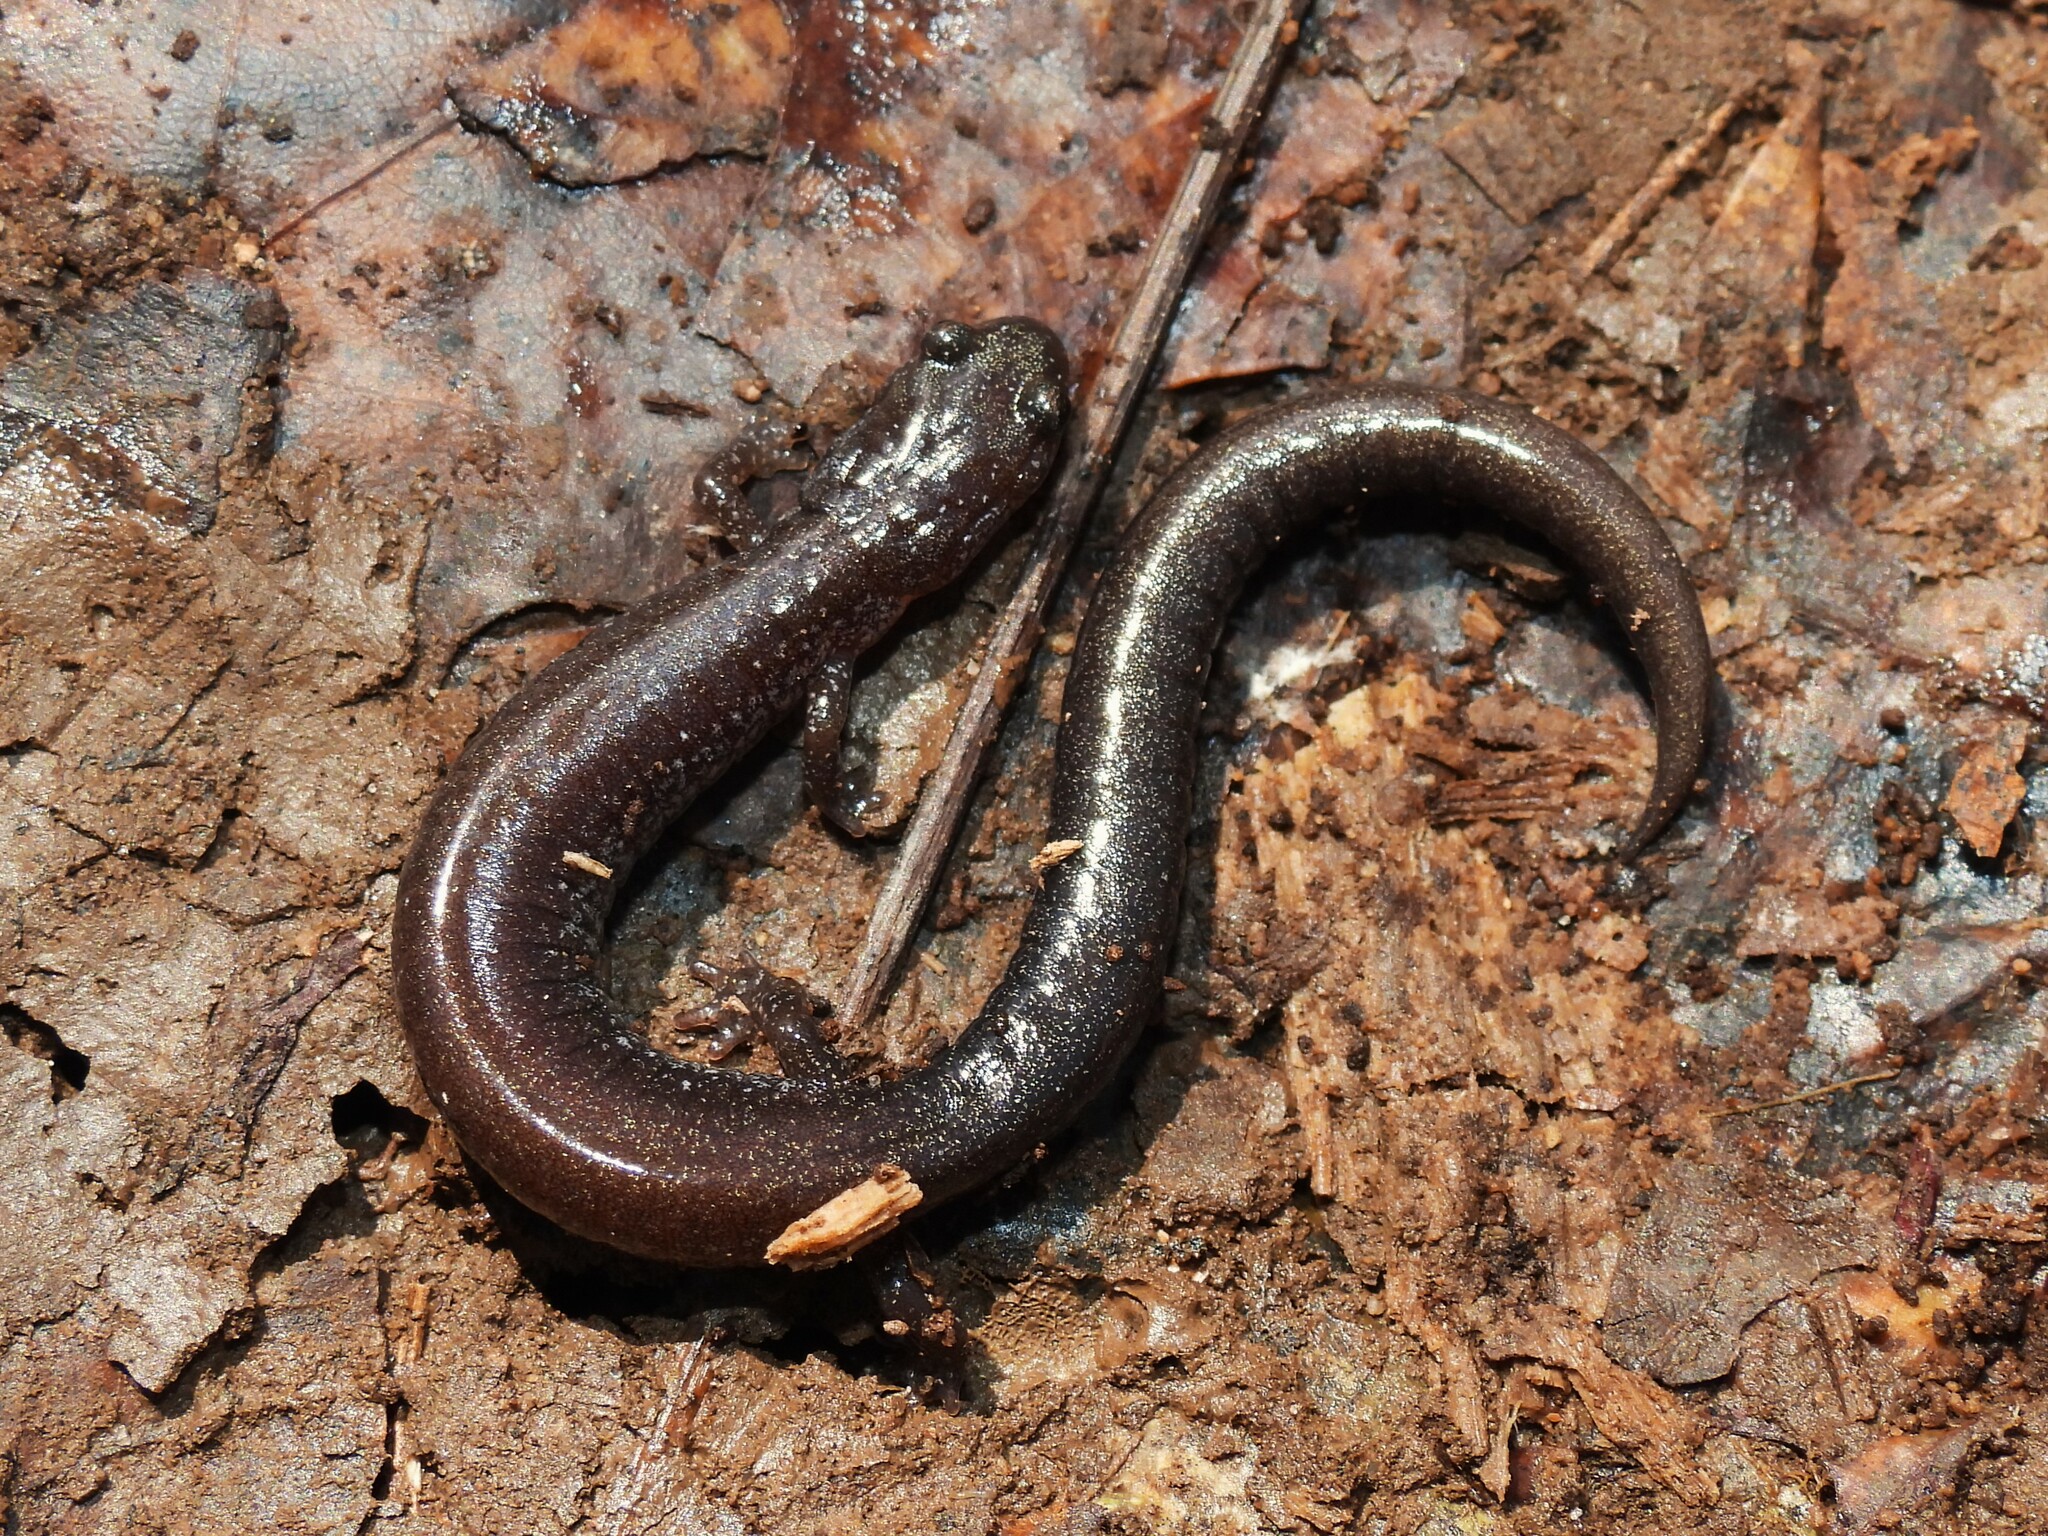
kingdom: Animalia
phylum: Chordata
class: Amphibia
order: Caudata
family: Plethodontidae
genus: Plethodon
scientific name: Plethodon cinereus
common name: Redback salamander
